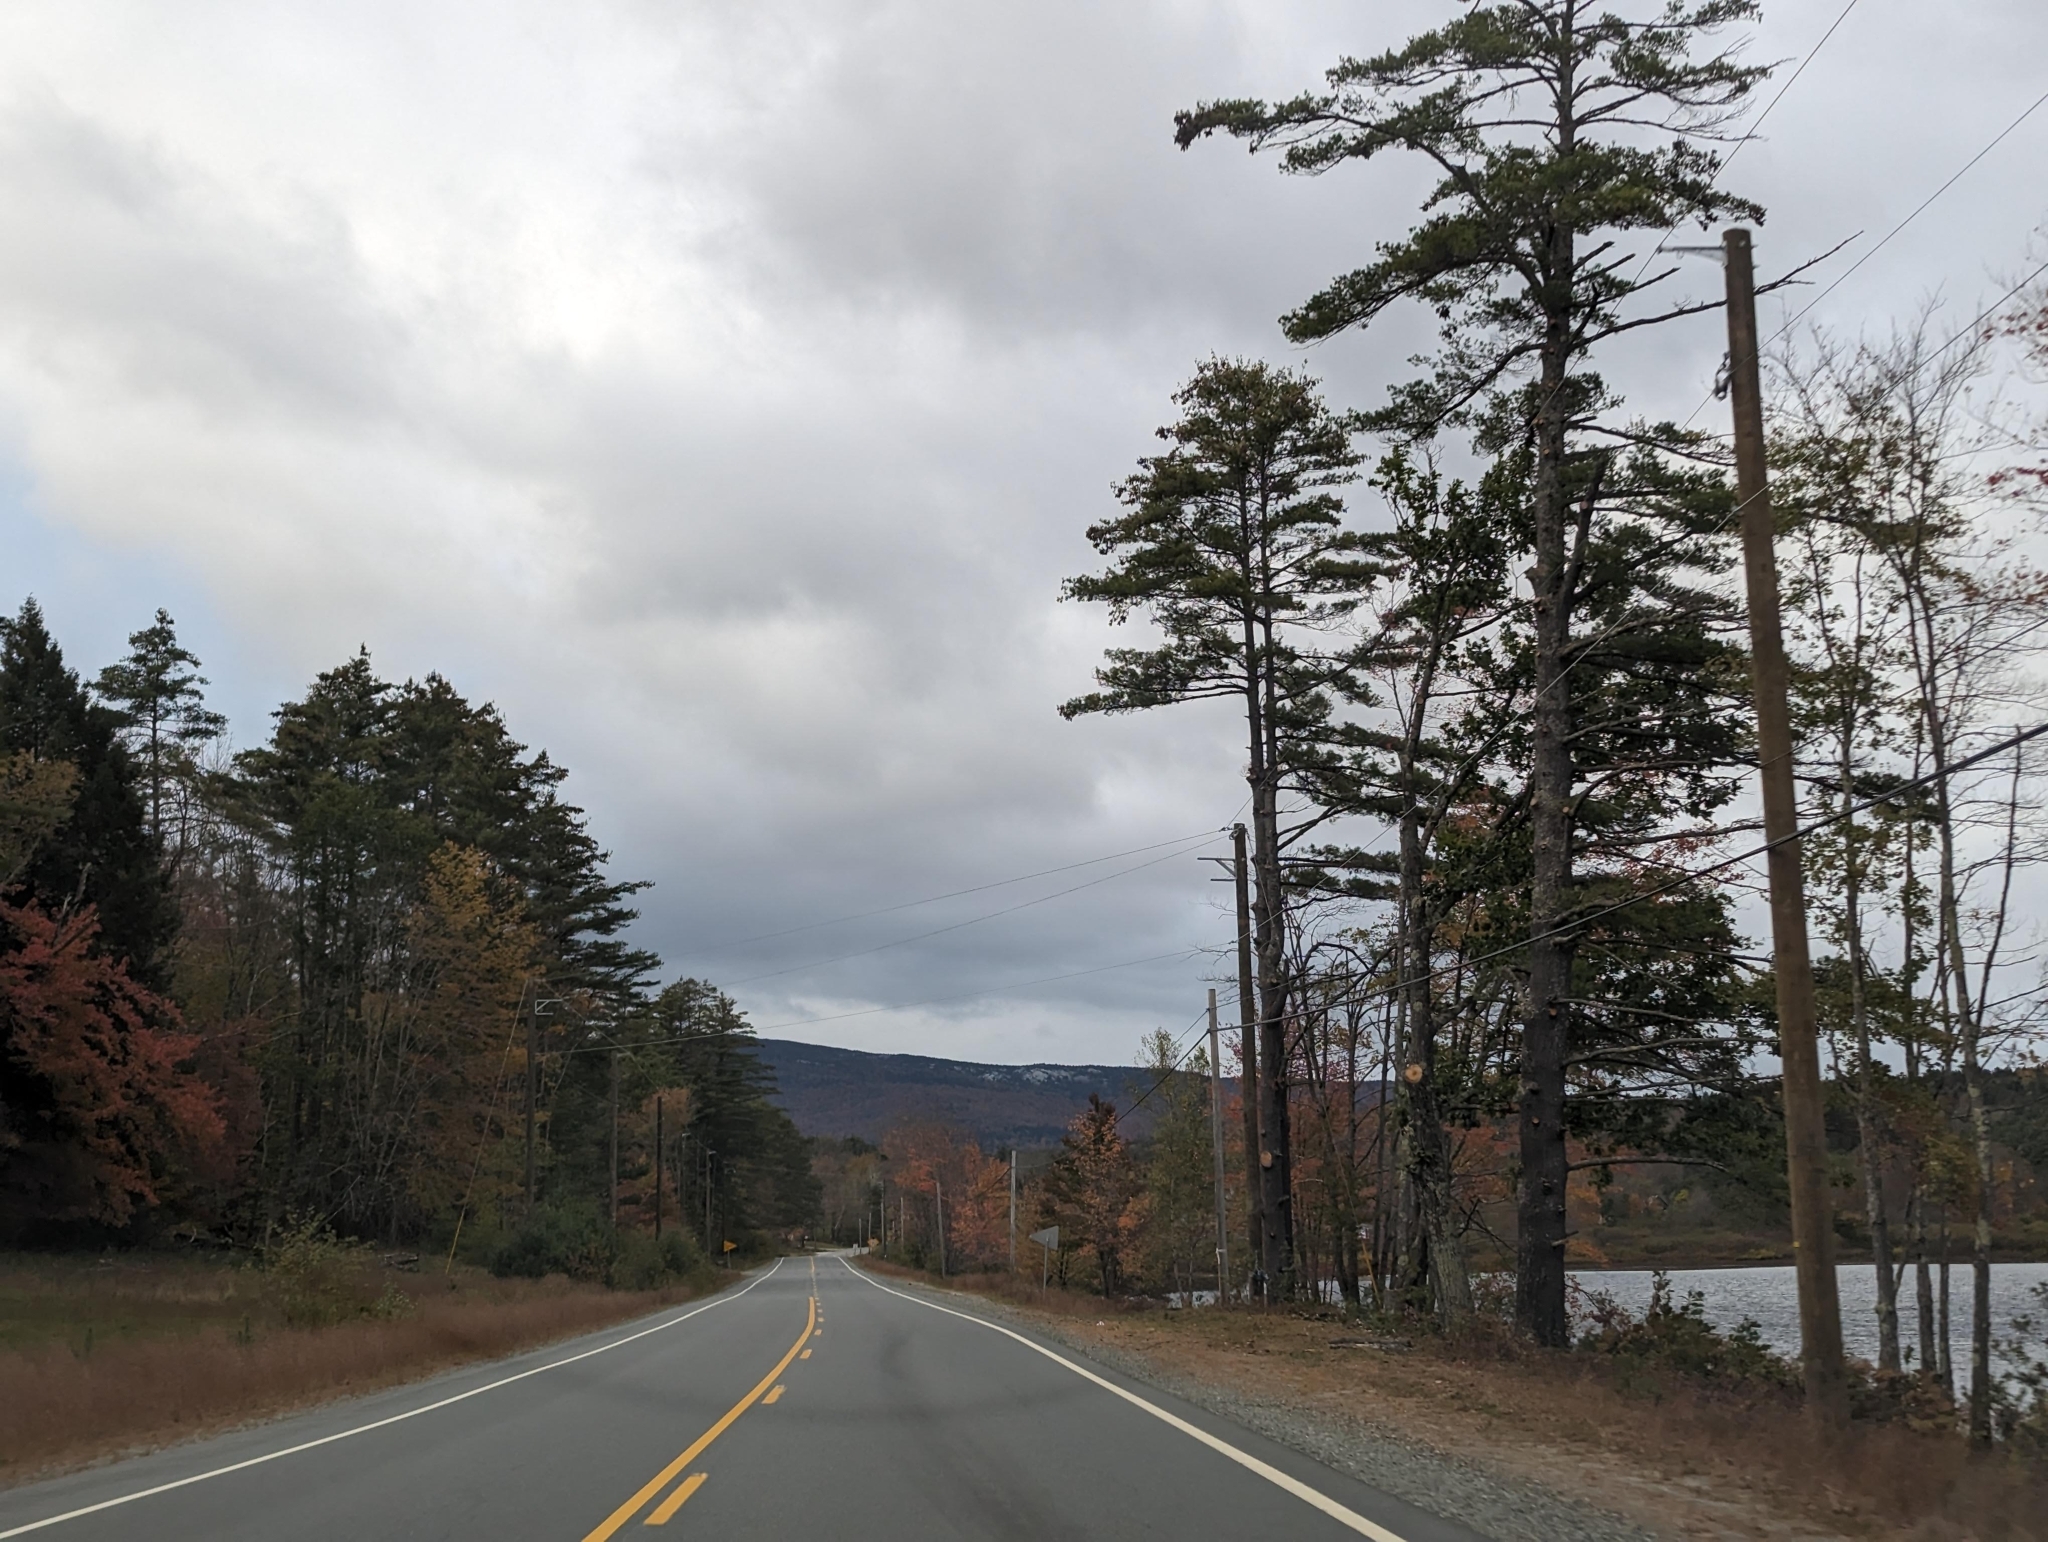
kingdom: Plantae
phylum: Tracheophyta
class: Pinopsida
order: Pinales
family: Pinaceae
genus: Pinus
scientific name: Pinus strobus
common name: Weymouth pine
